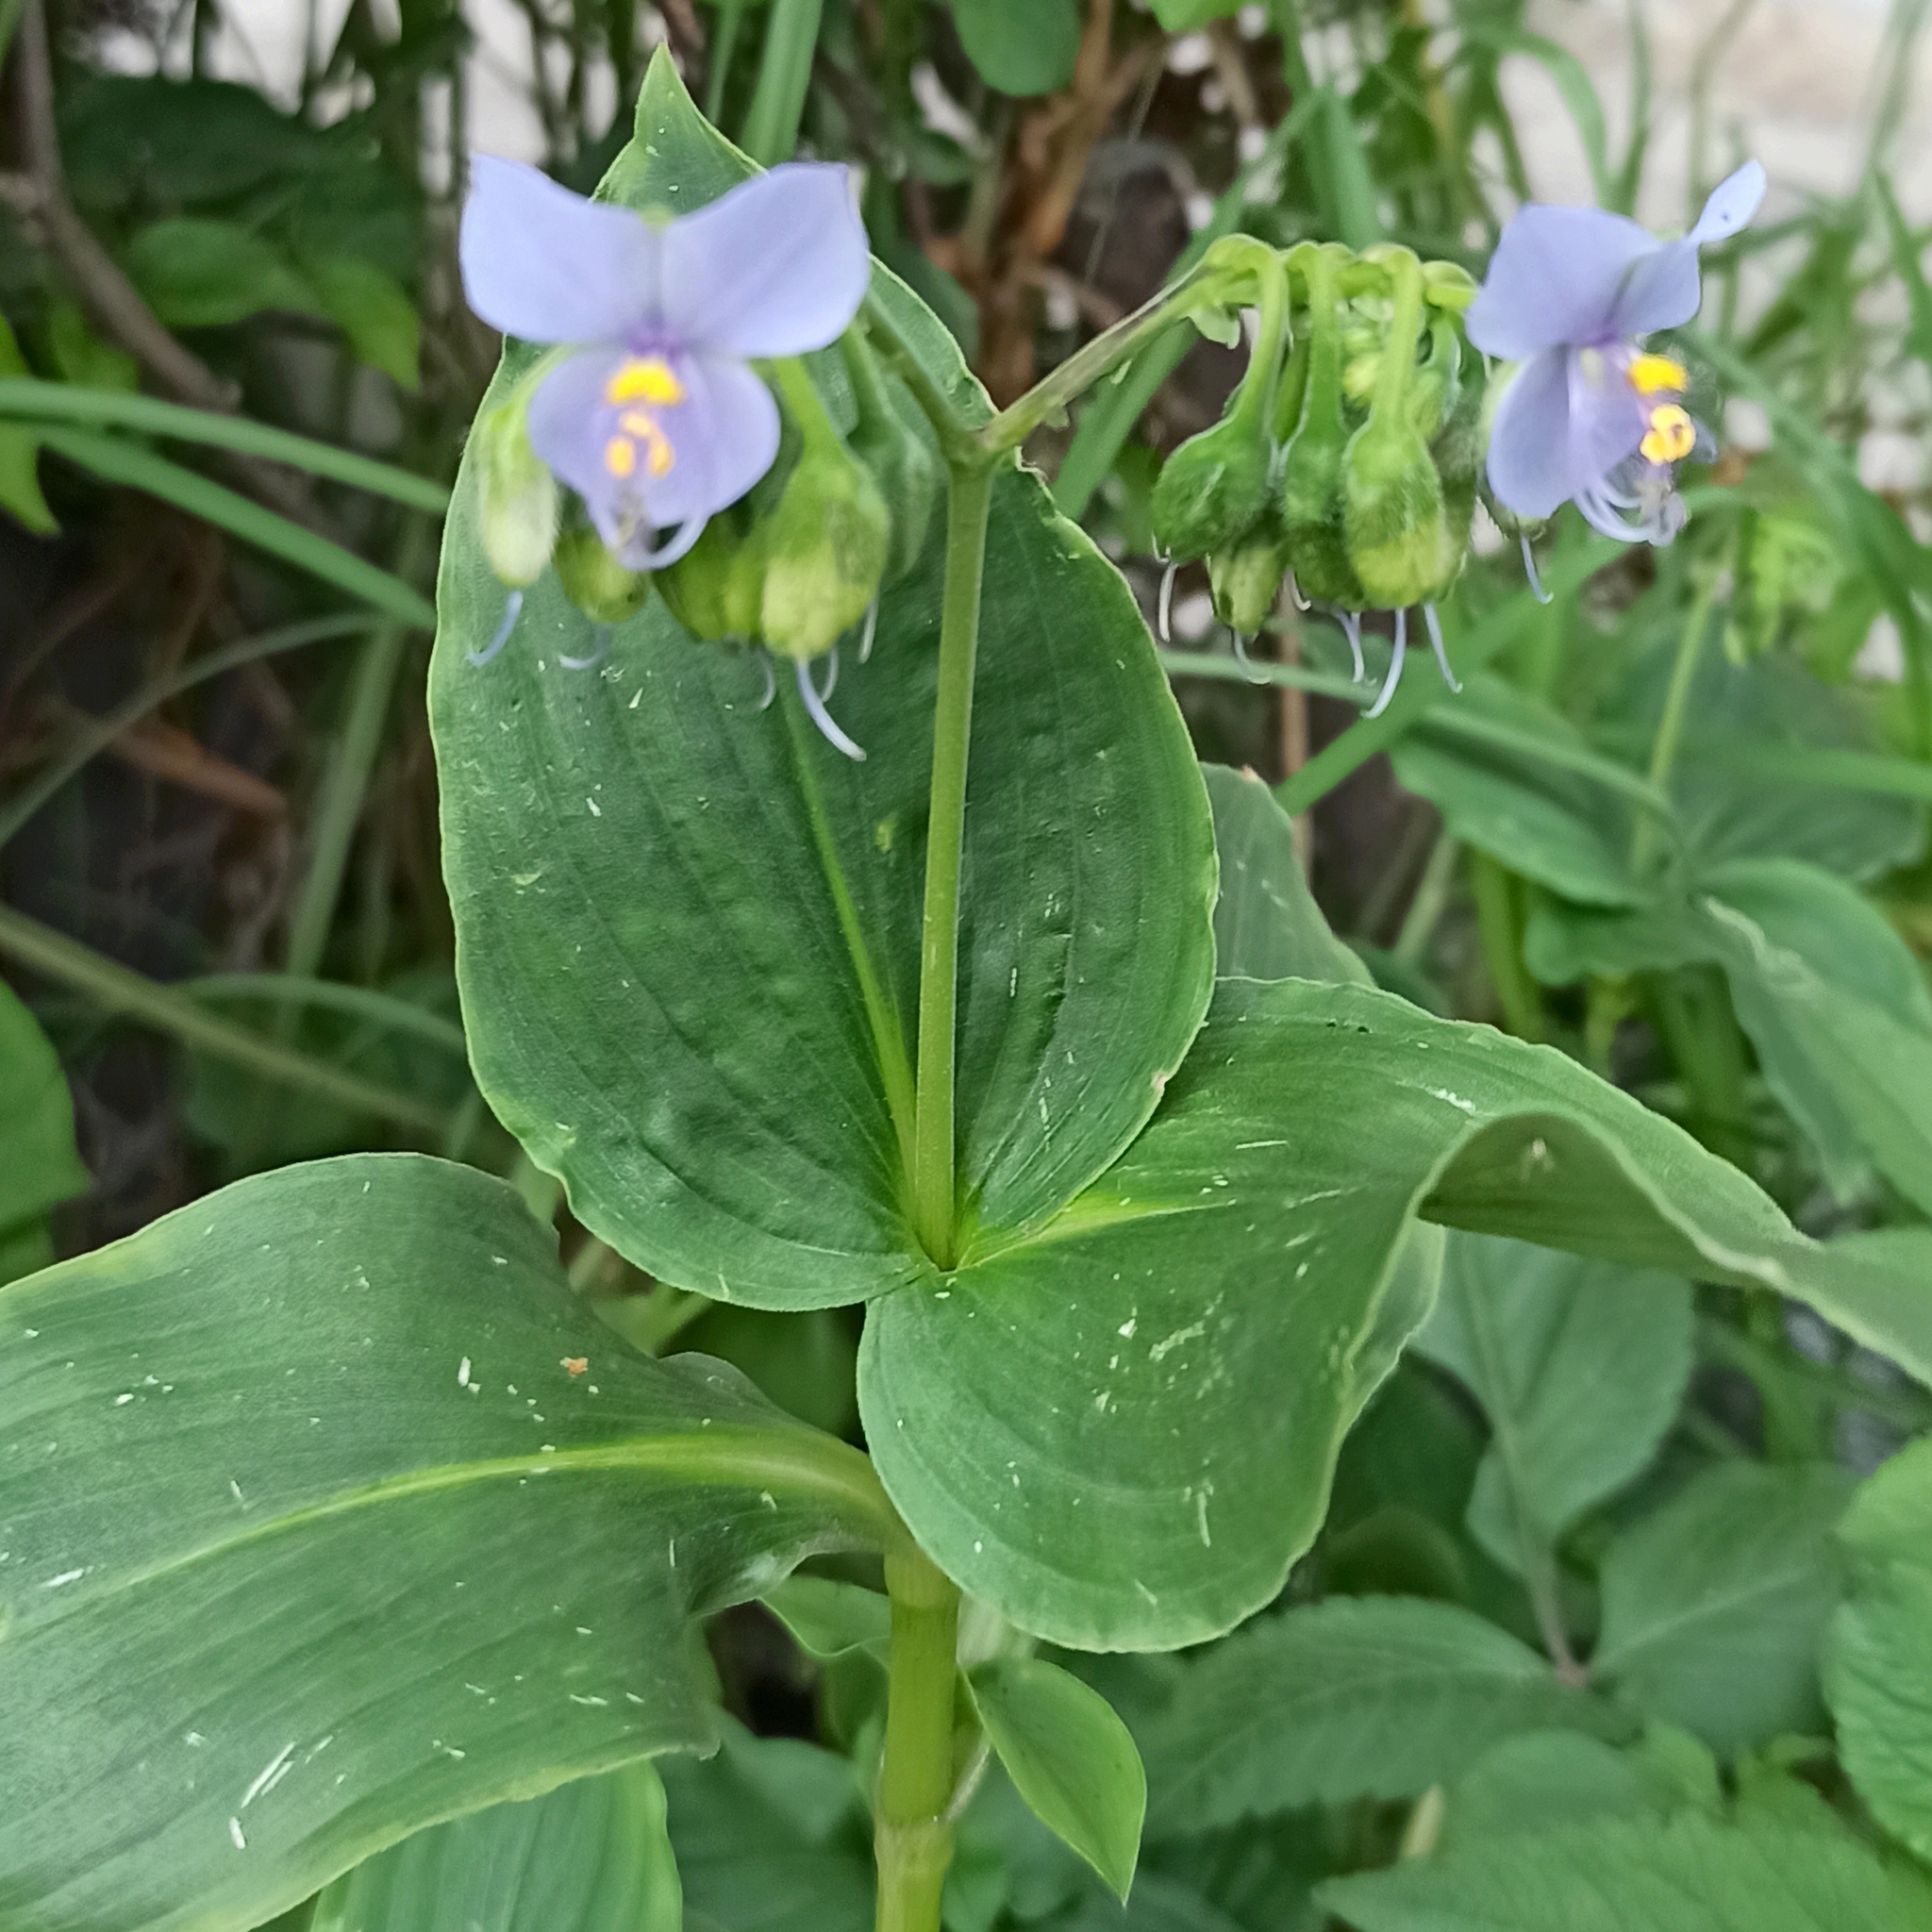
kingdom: Plantae
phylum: Tracheophyta
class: Liliopsida
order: Commelinales
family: Commelinaceae
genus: Tinantia
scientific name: Tinantia erecta
